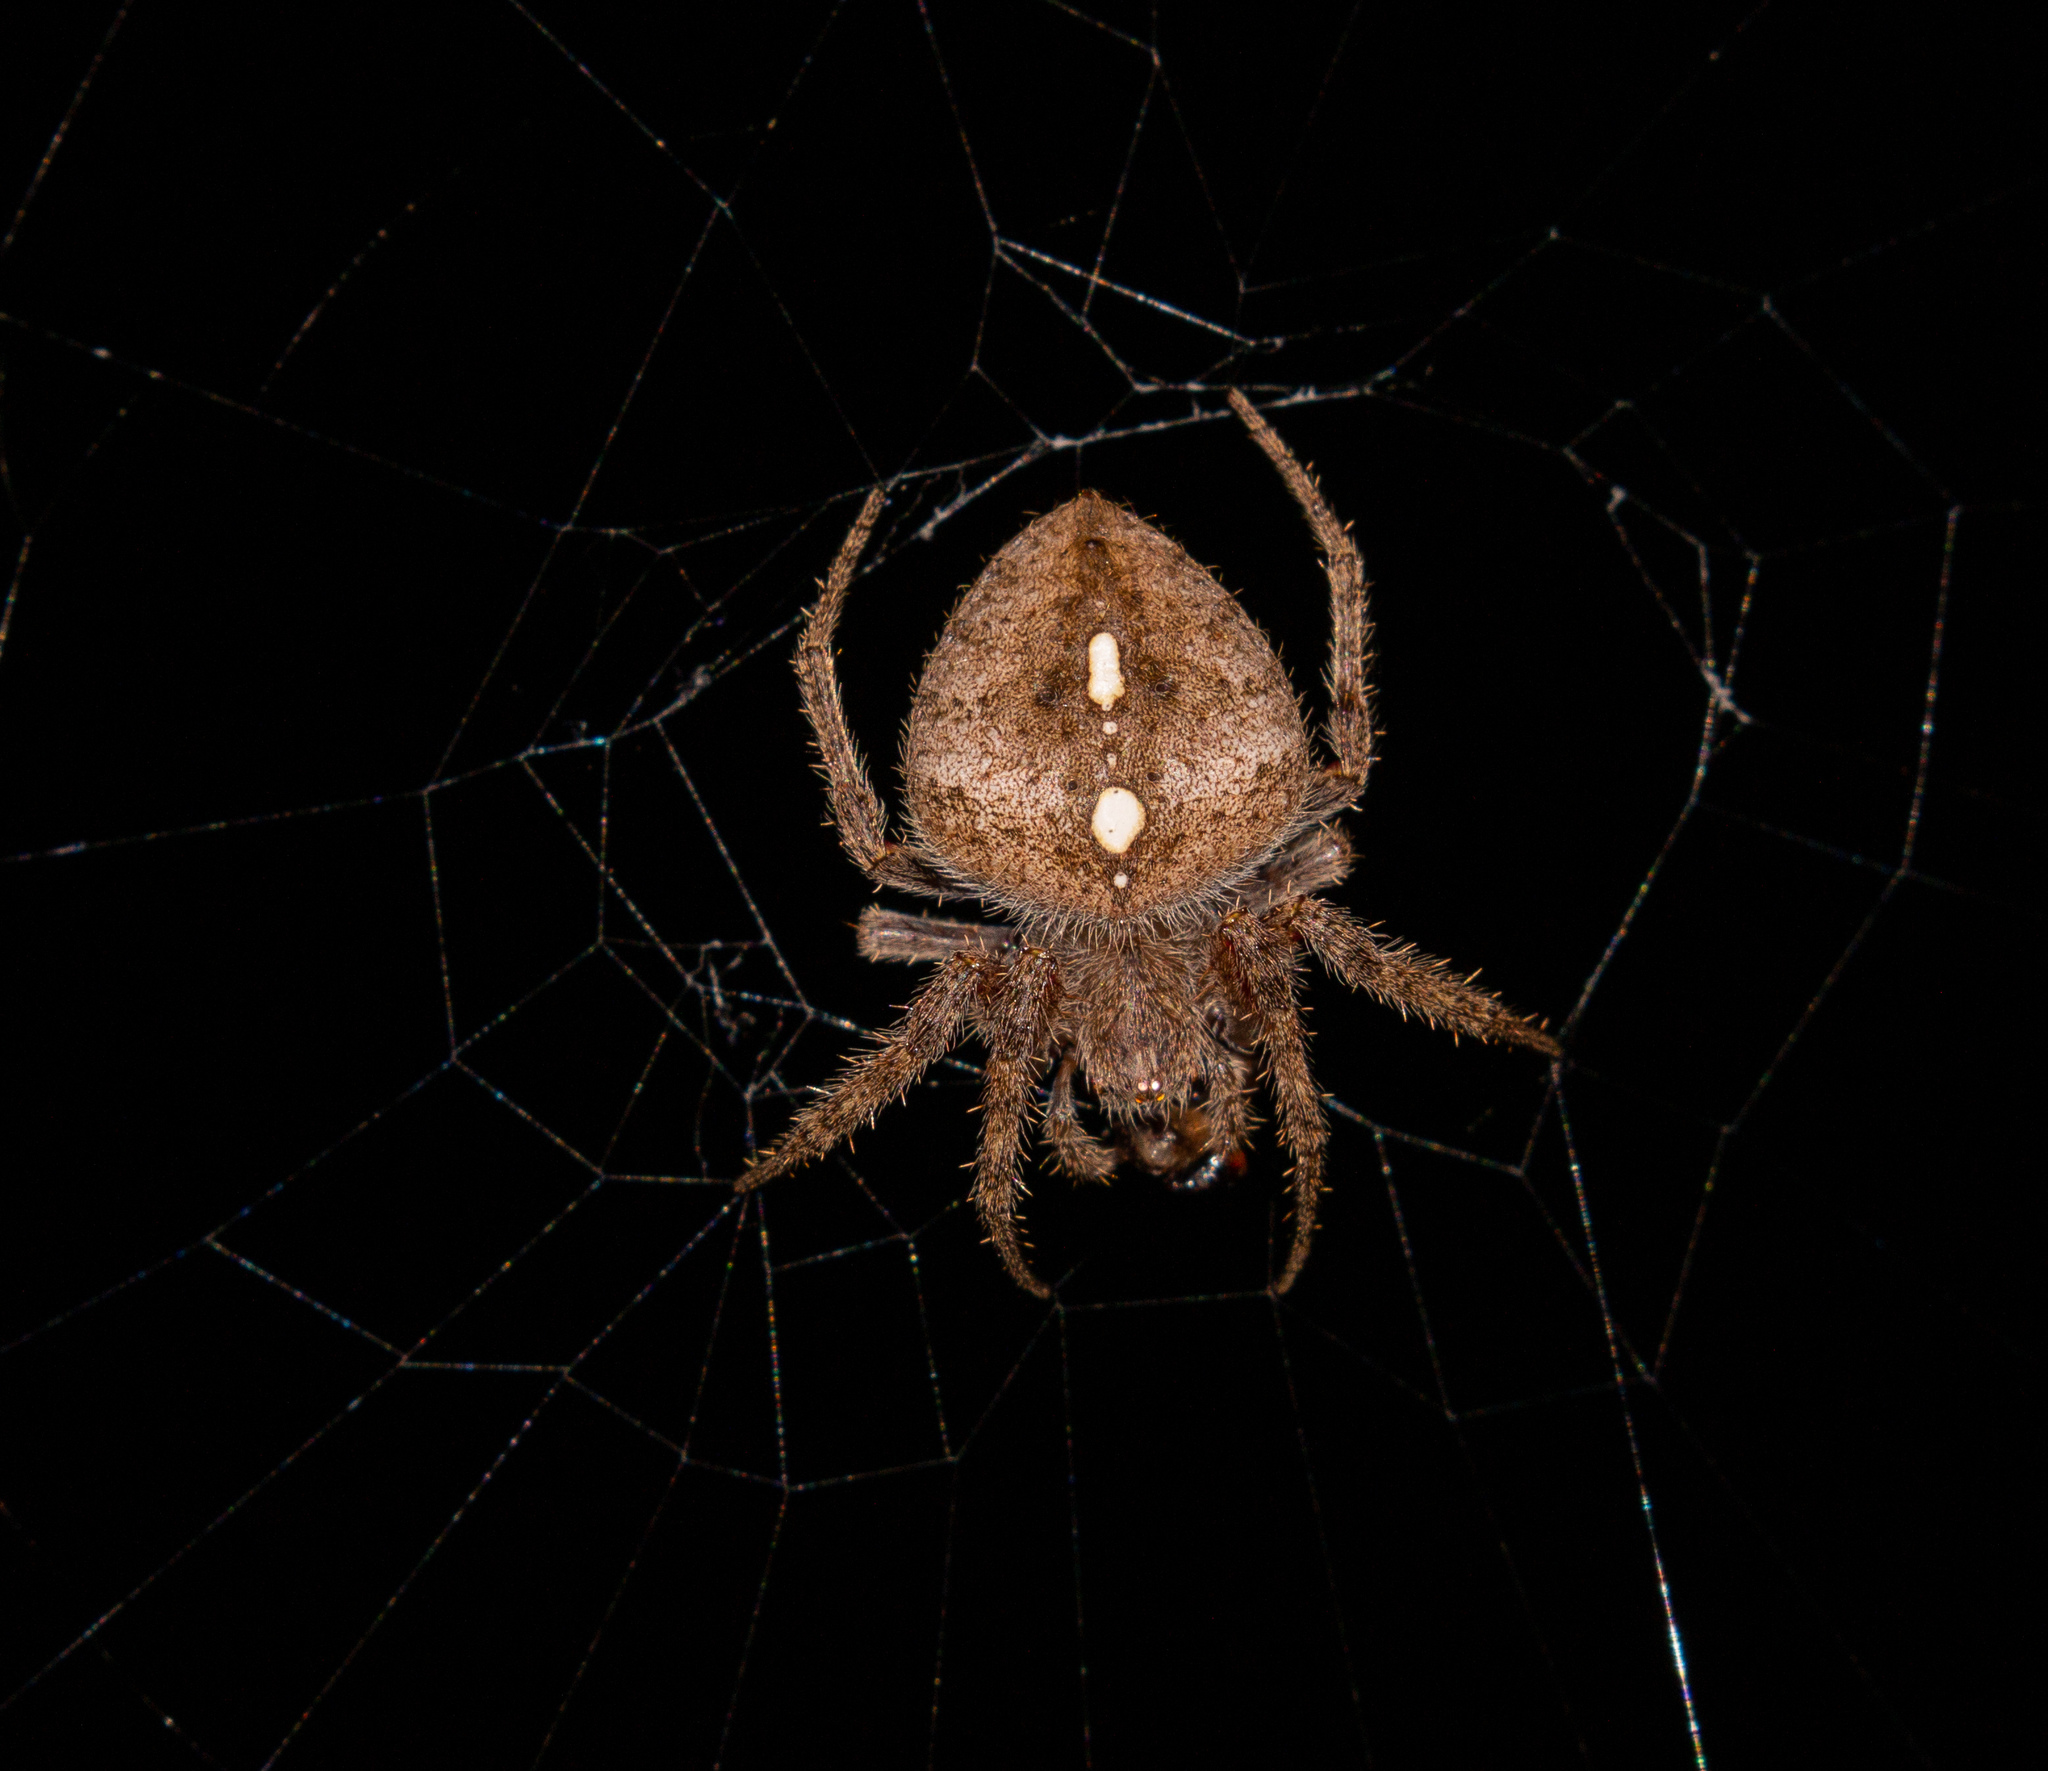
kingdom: Animalia
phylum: Arthropoda
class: Arachnida
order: Araneae
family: Araneidae
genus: Eriophora
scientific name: Eriophora edax
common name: Orb weavers
